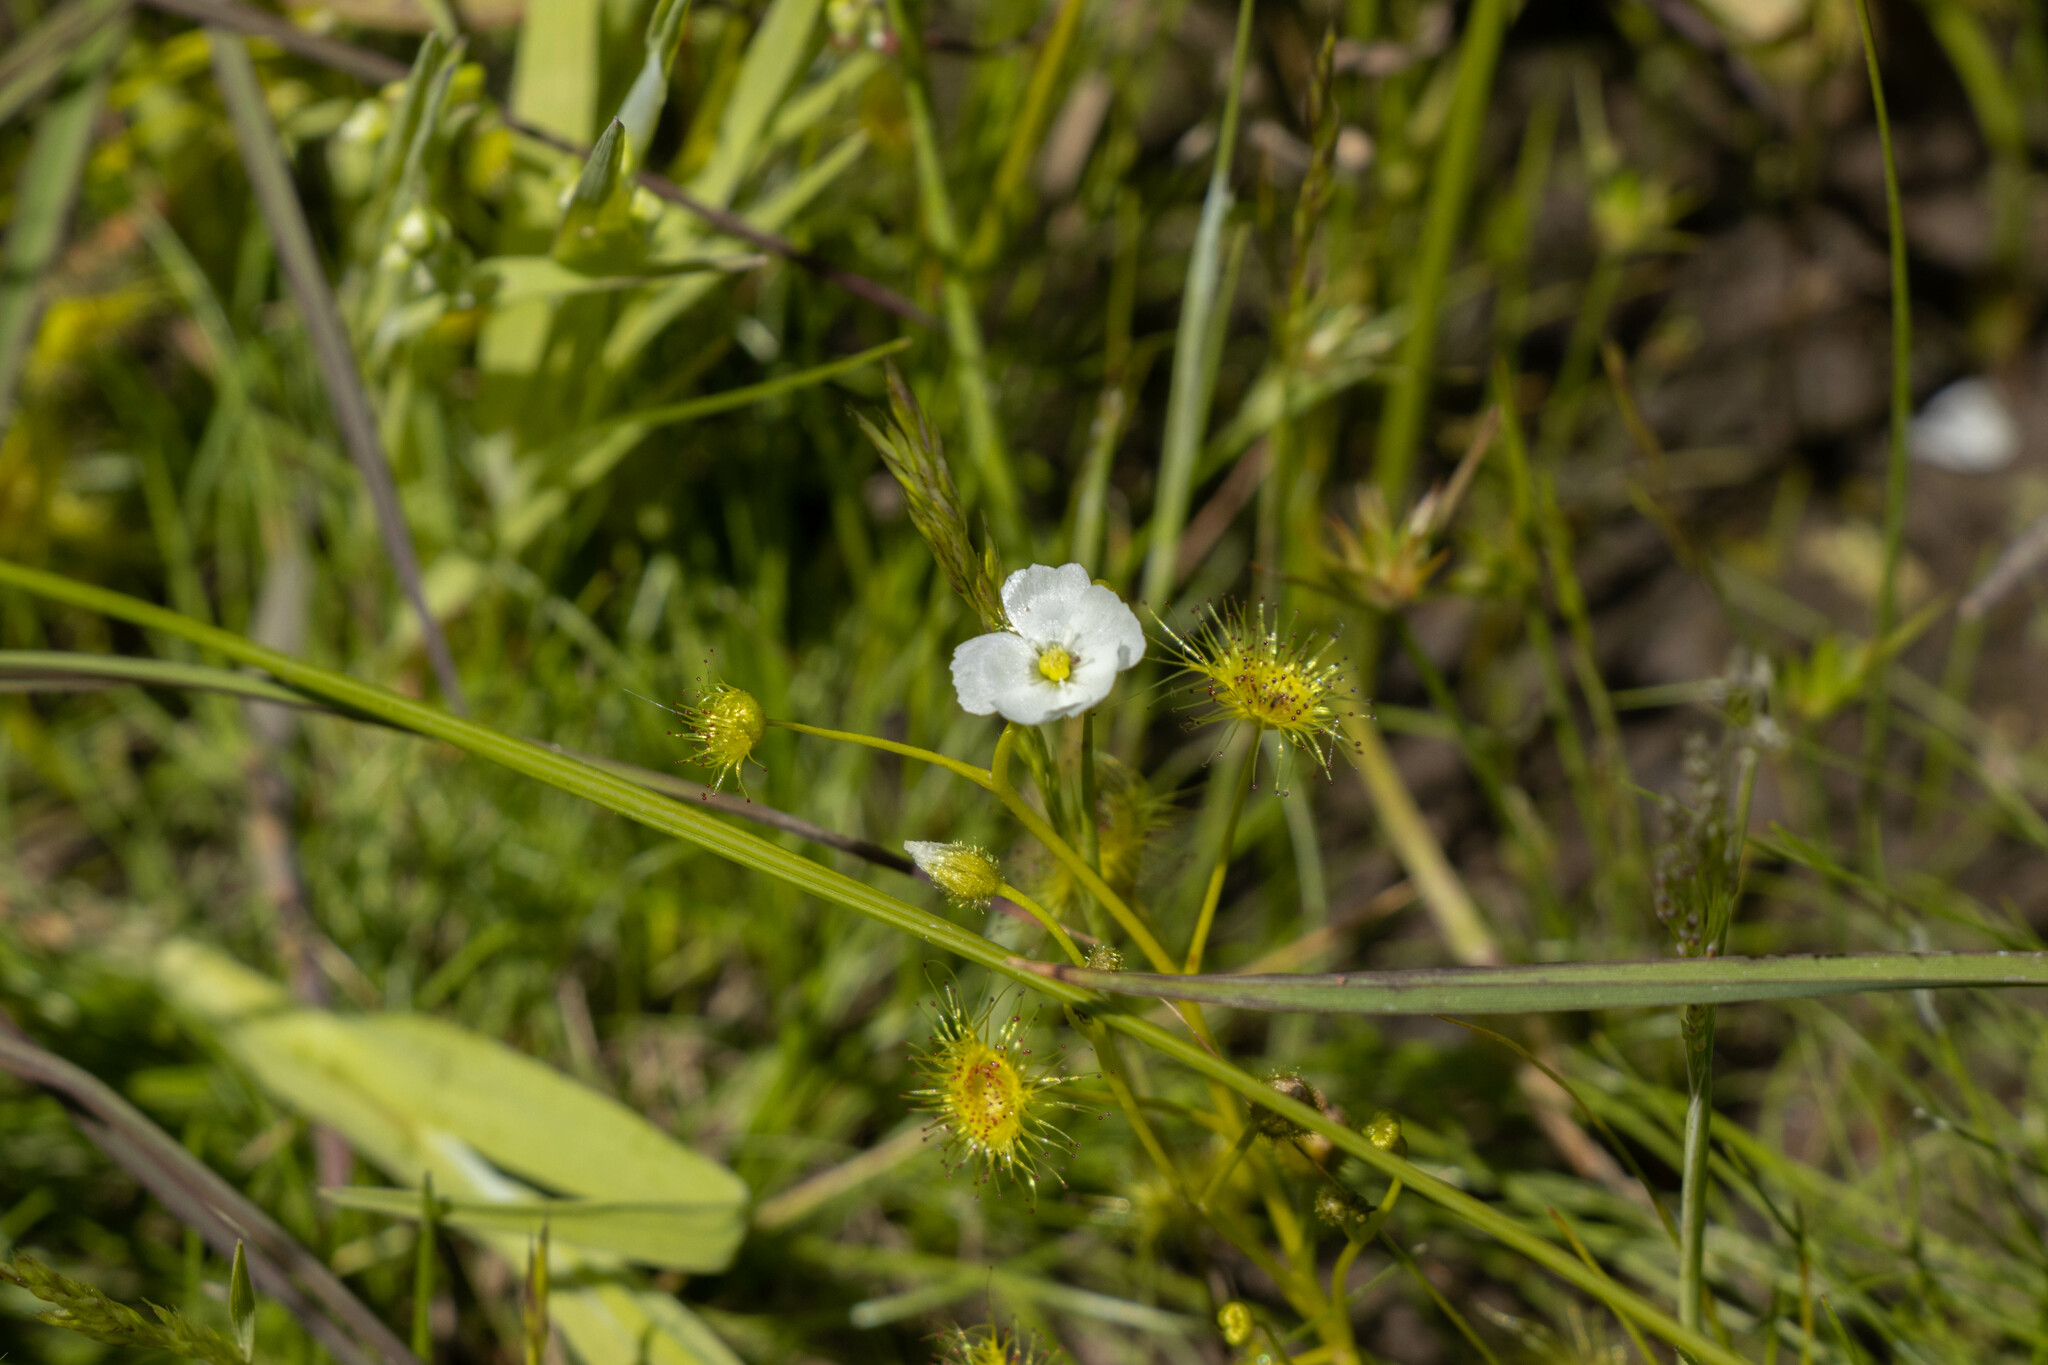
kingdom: Plantae
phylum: Tracheophyta
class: Magnoliopsida
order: Caryophyllales
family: Droseraceae
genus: Drosera
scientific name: Drosera hookeri
